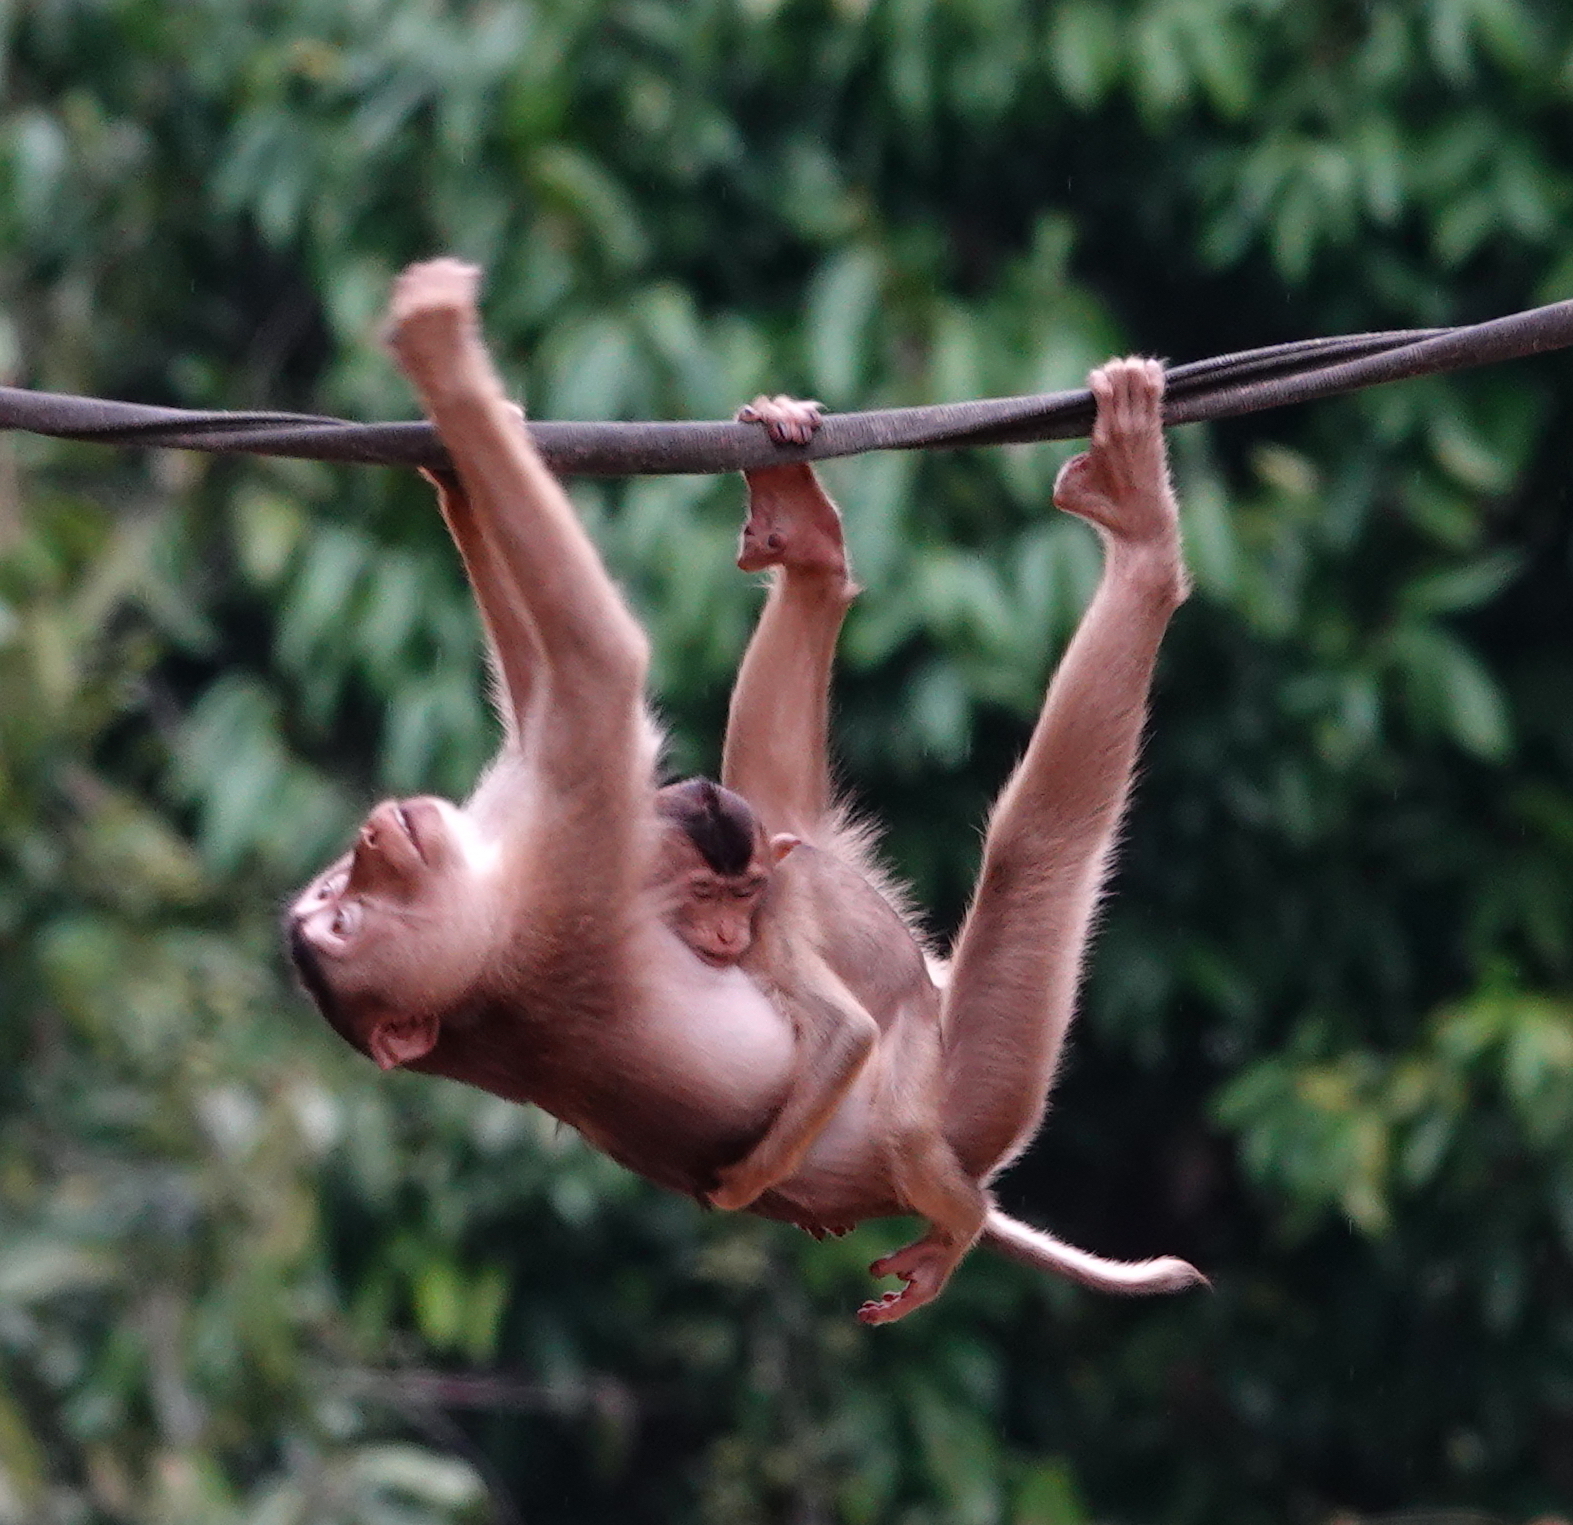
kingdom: Animalia
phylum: Chordata
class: Mammalia
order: Primates
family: Cercopithecidae
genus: Macaca
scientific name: Macaca nemestrina
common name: Southern pig-tailed macaque
